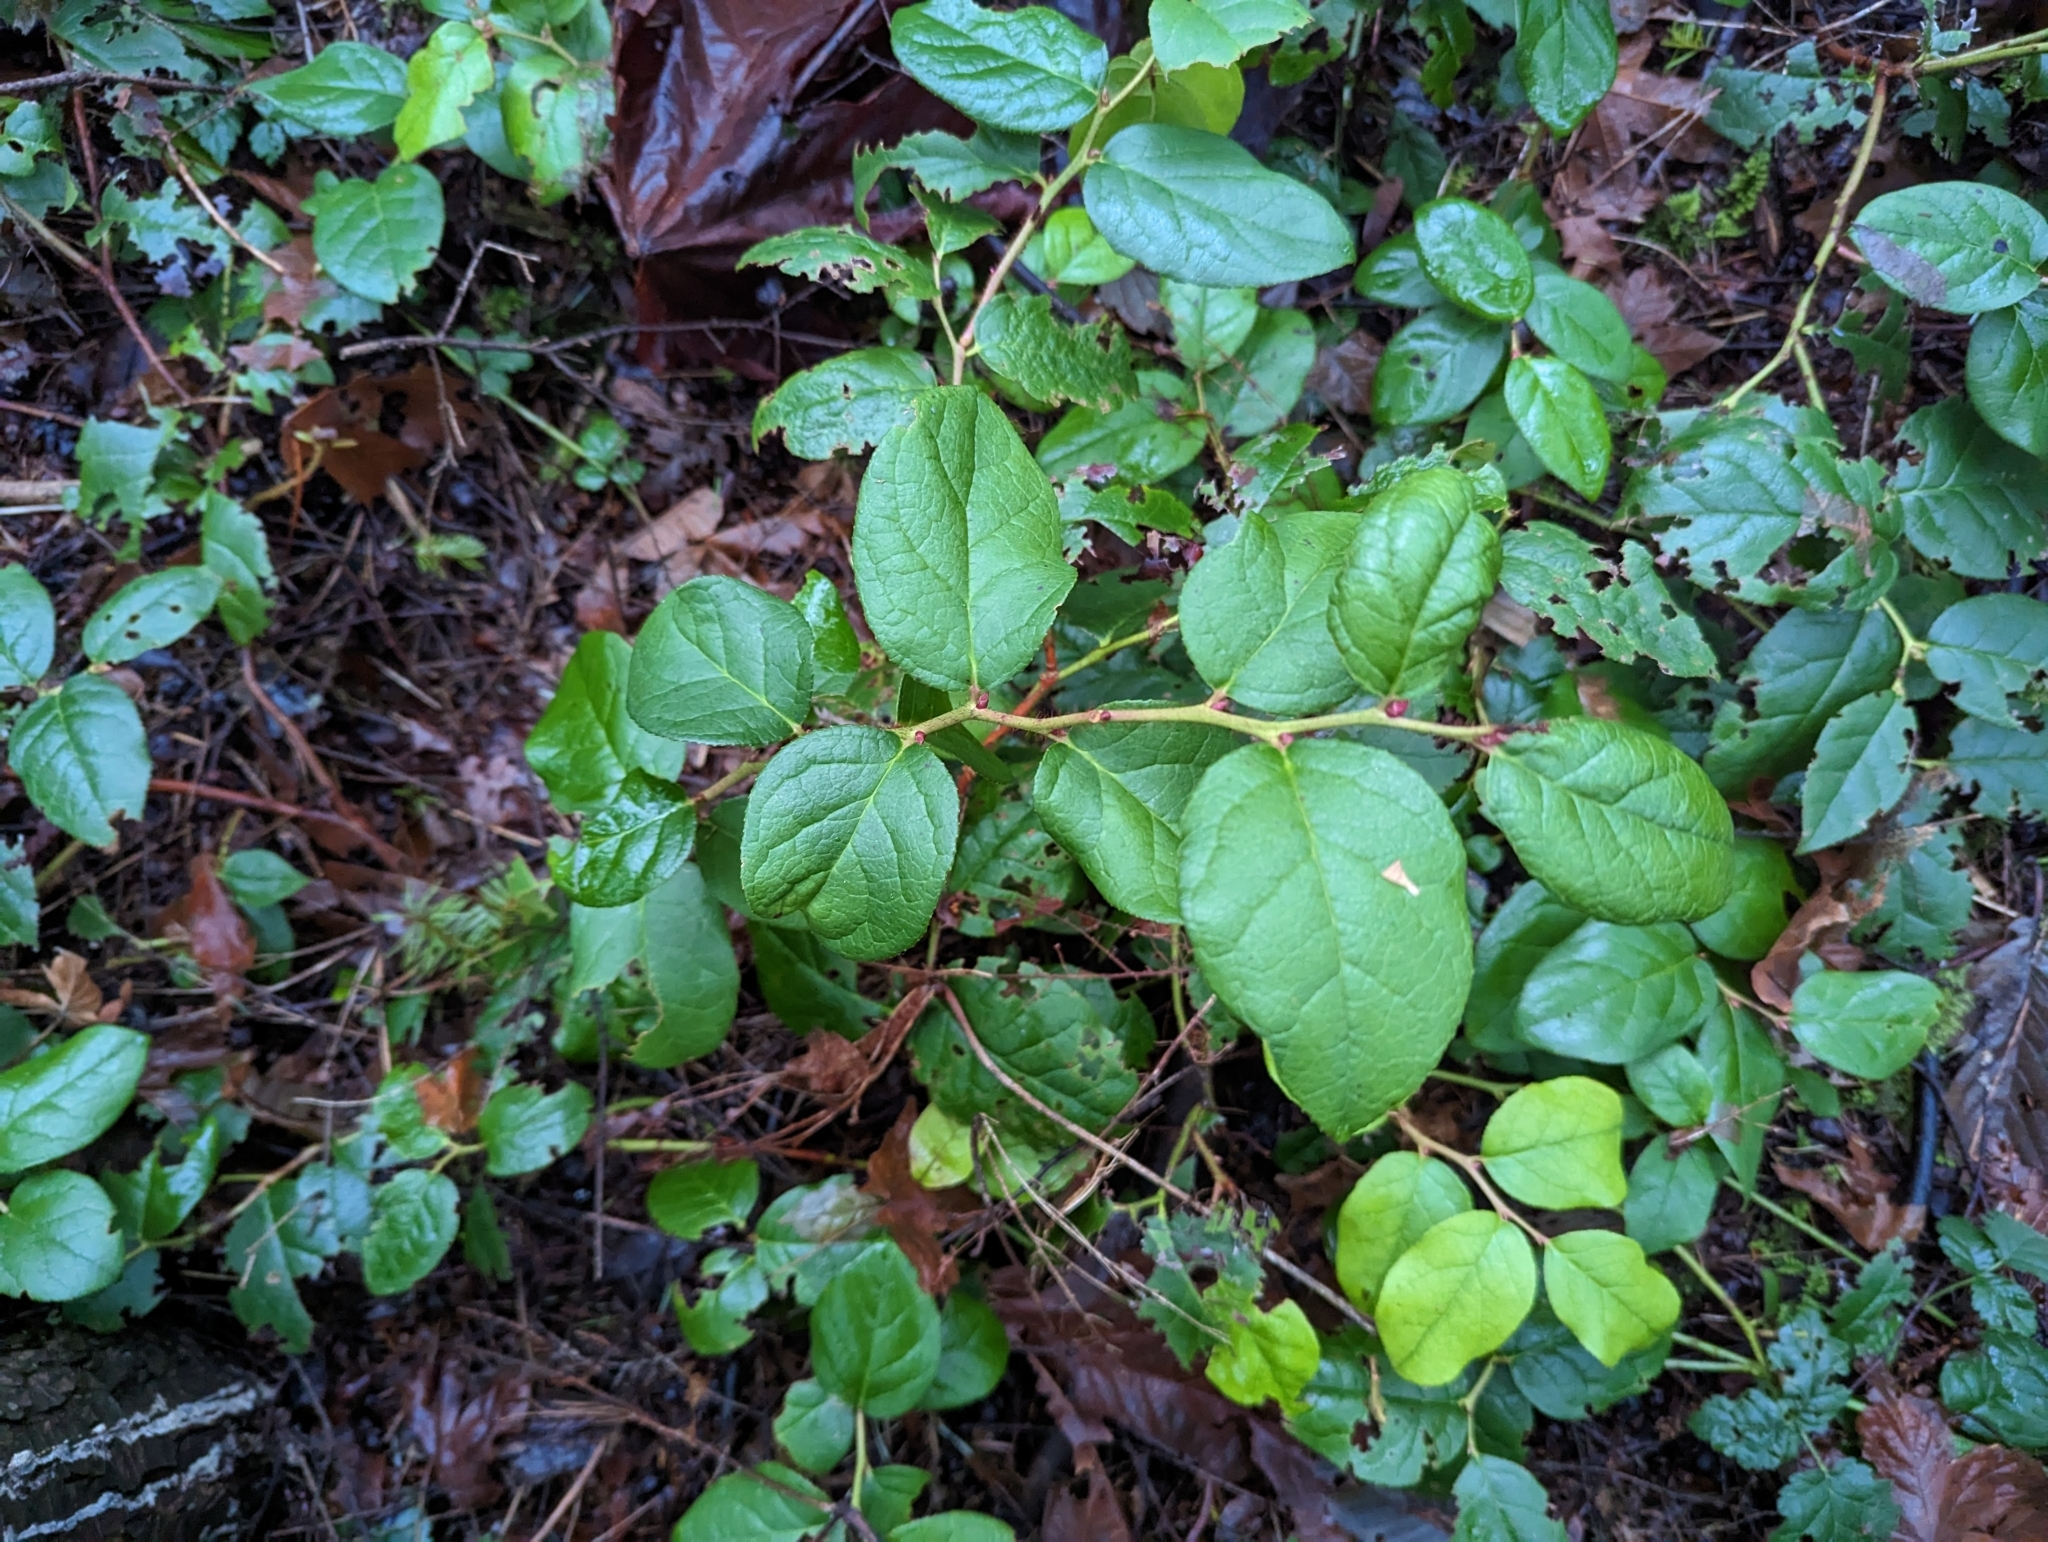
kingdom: Plantae
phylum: Tracheophyta
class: Magnoliopsida
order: Ericales
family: Ericaceae
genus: Gaultheria
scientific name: Gaultheria shallon
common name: Shallon
